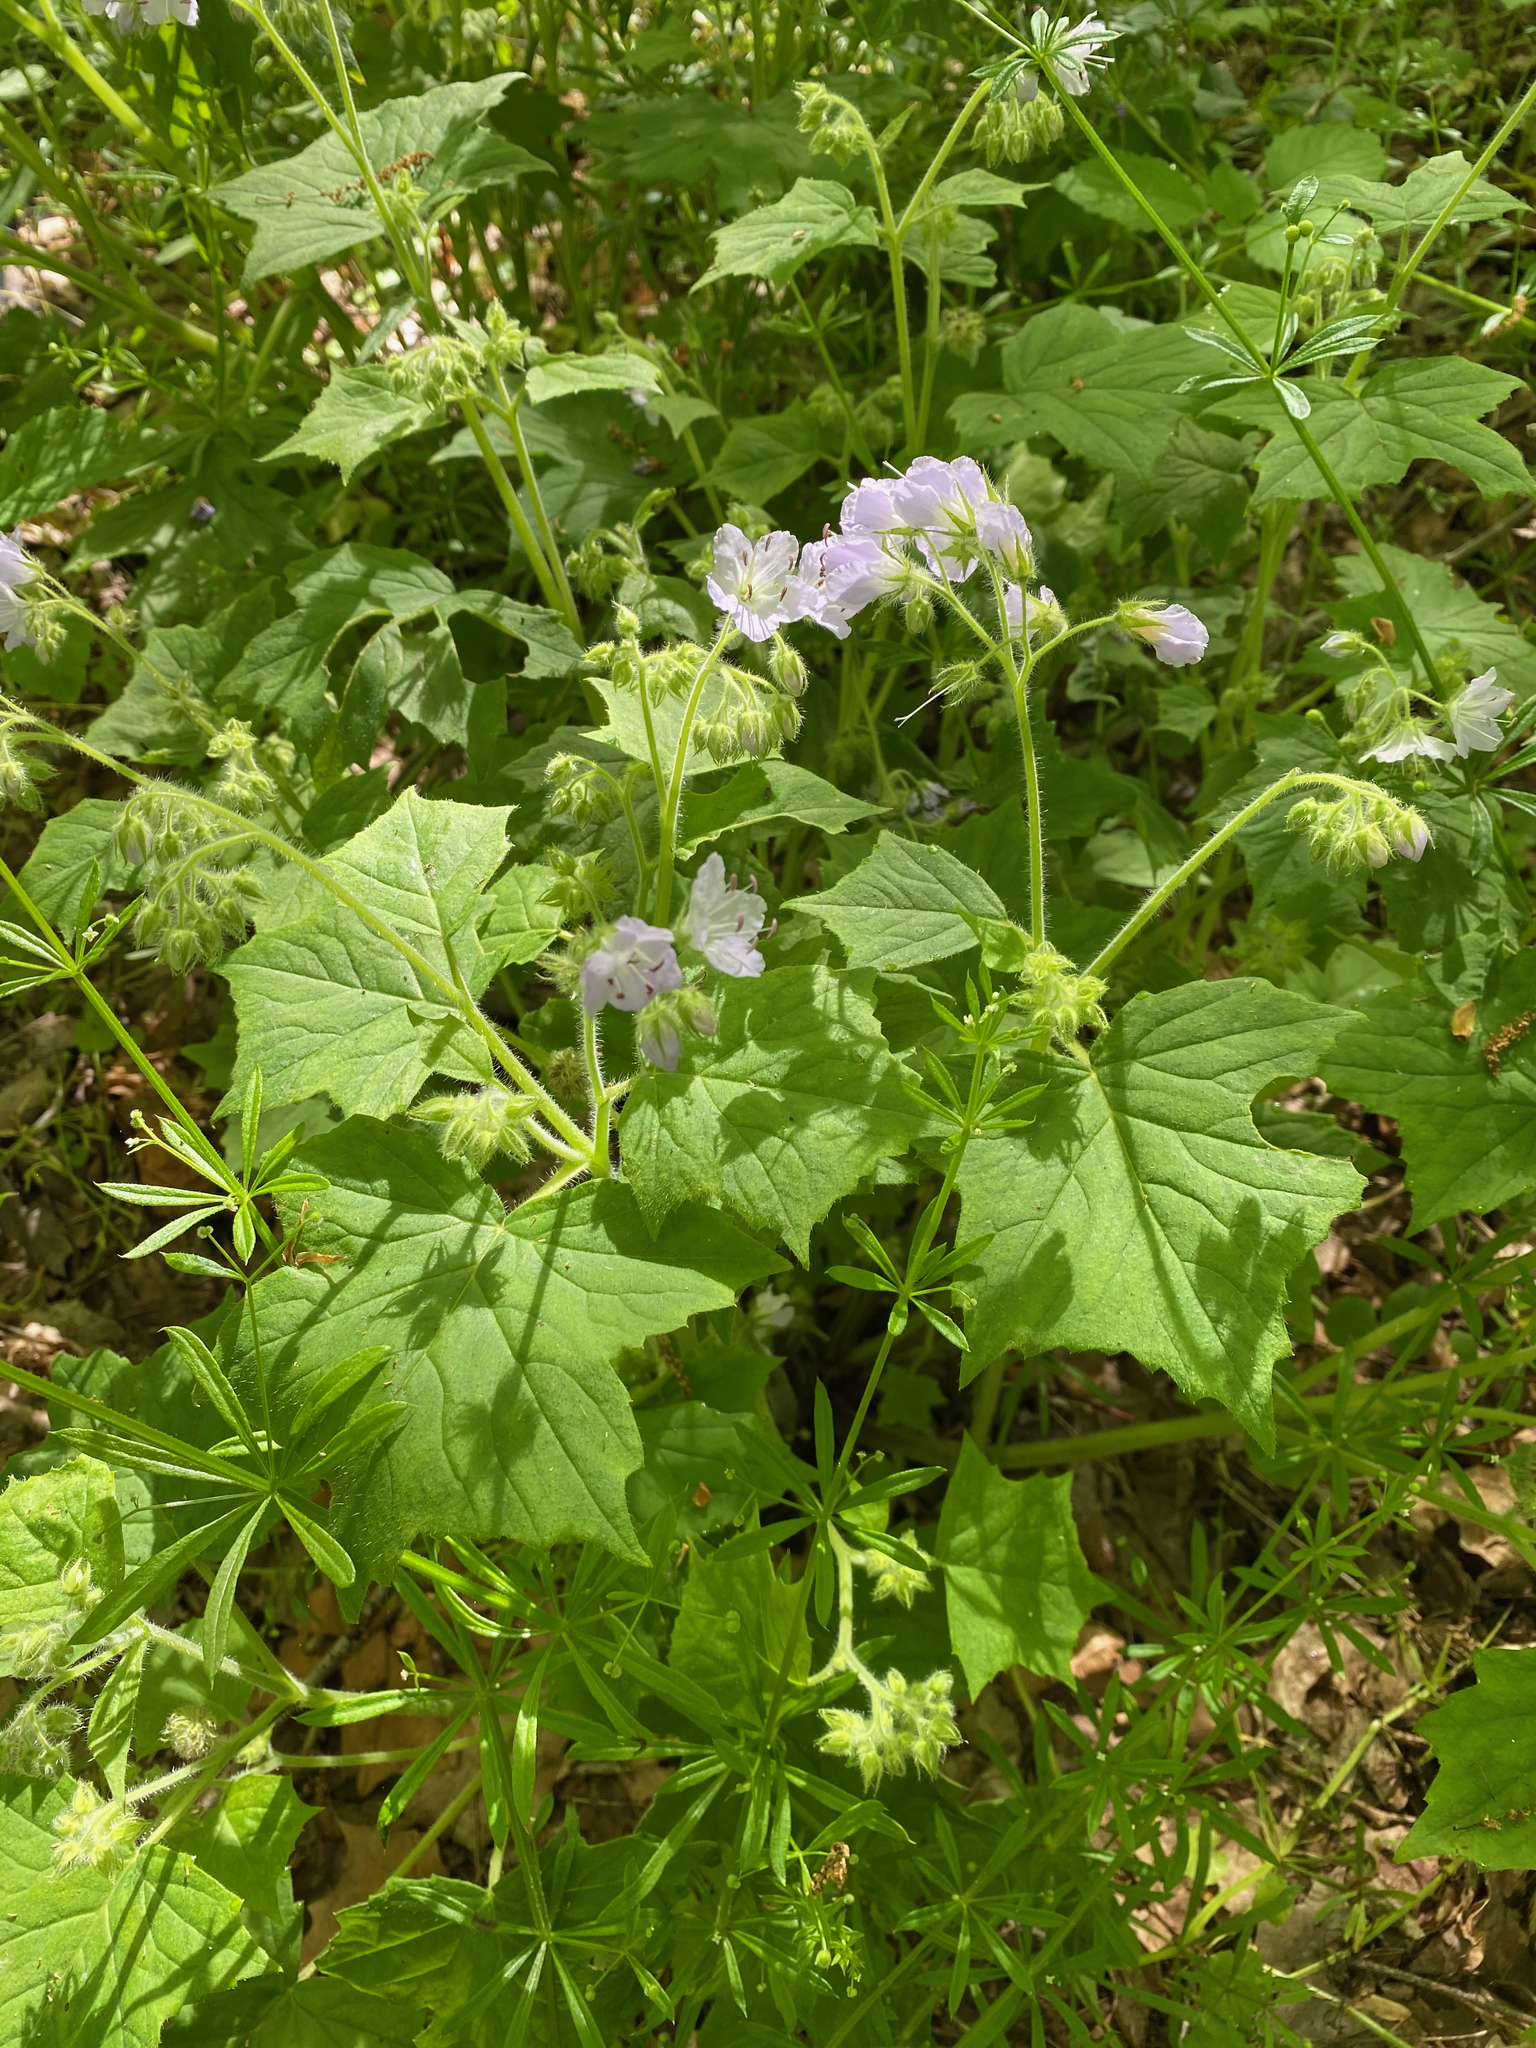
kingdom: Plantae
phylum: Tracheophyta
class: Magnoliopsida
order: Boraginales
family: Hydrophyllaceae
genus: Hydrophyllum
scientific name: Hydrophyllum appendiculatum
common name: Appendaged waterleaf
